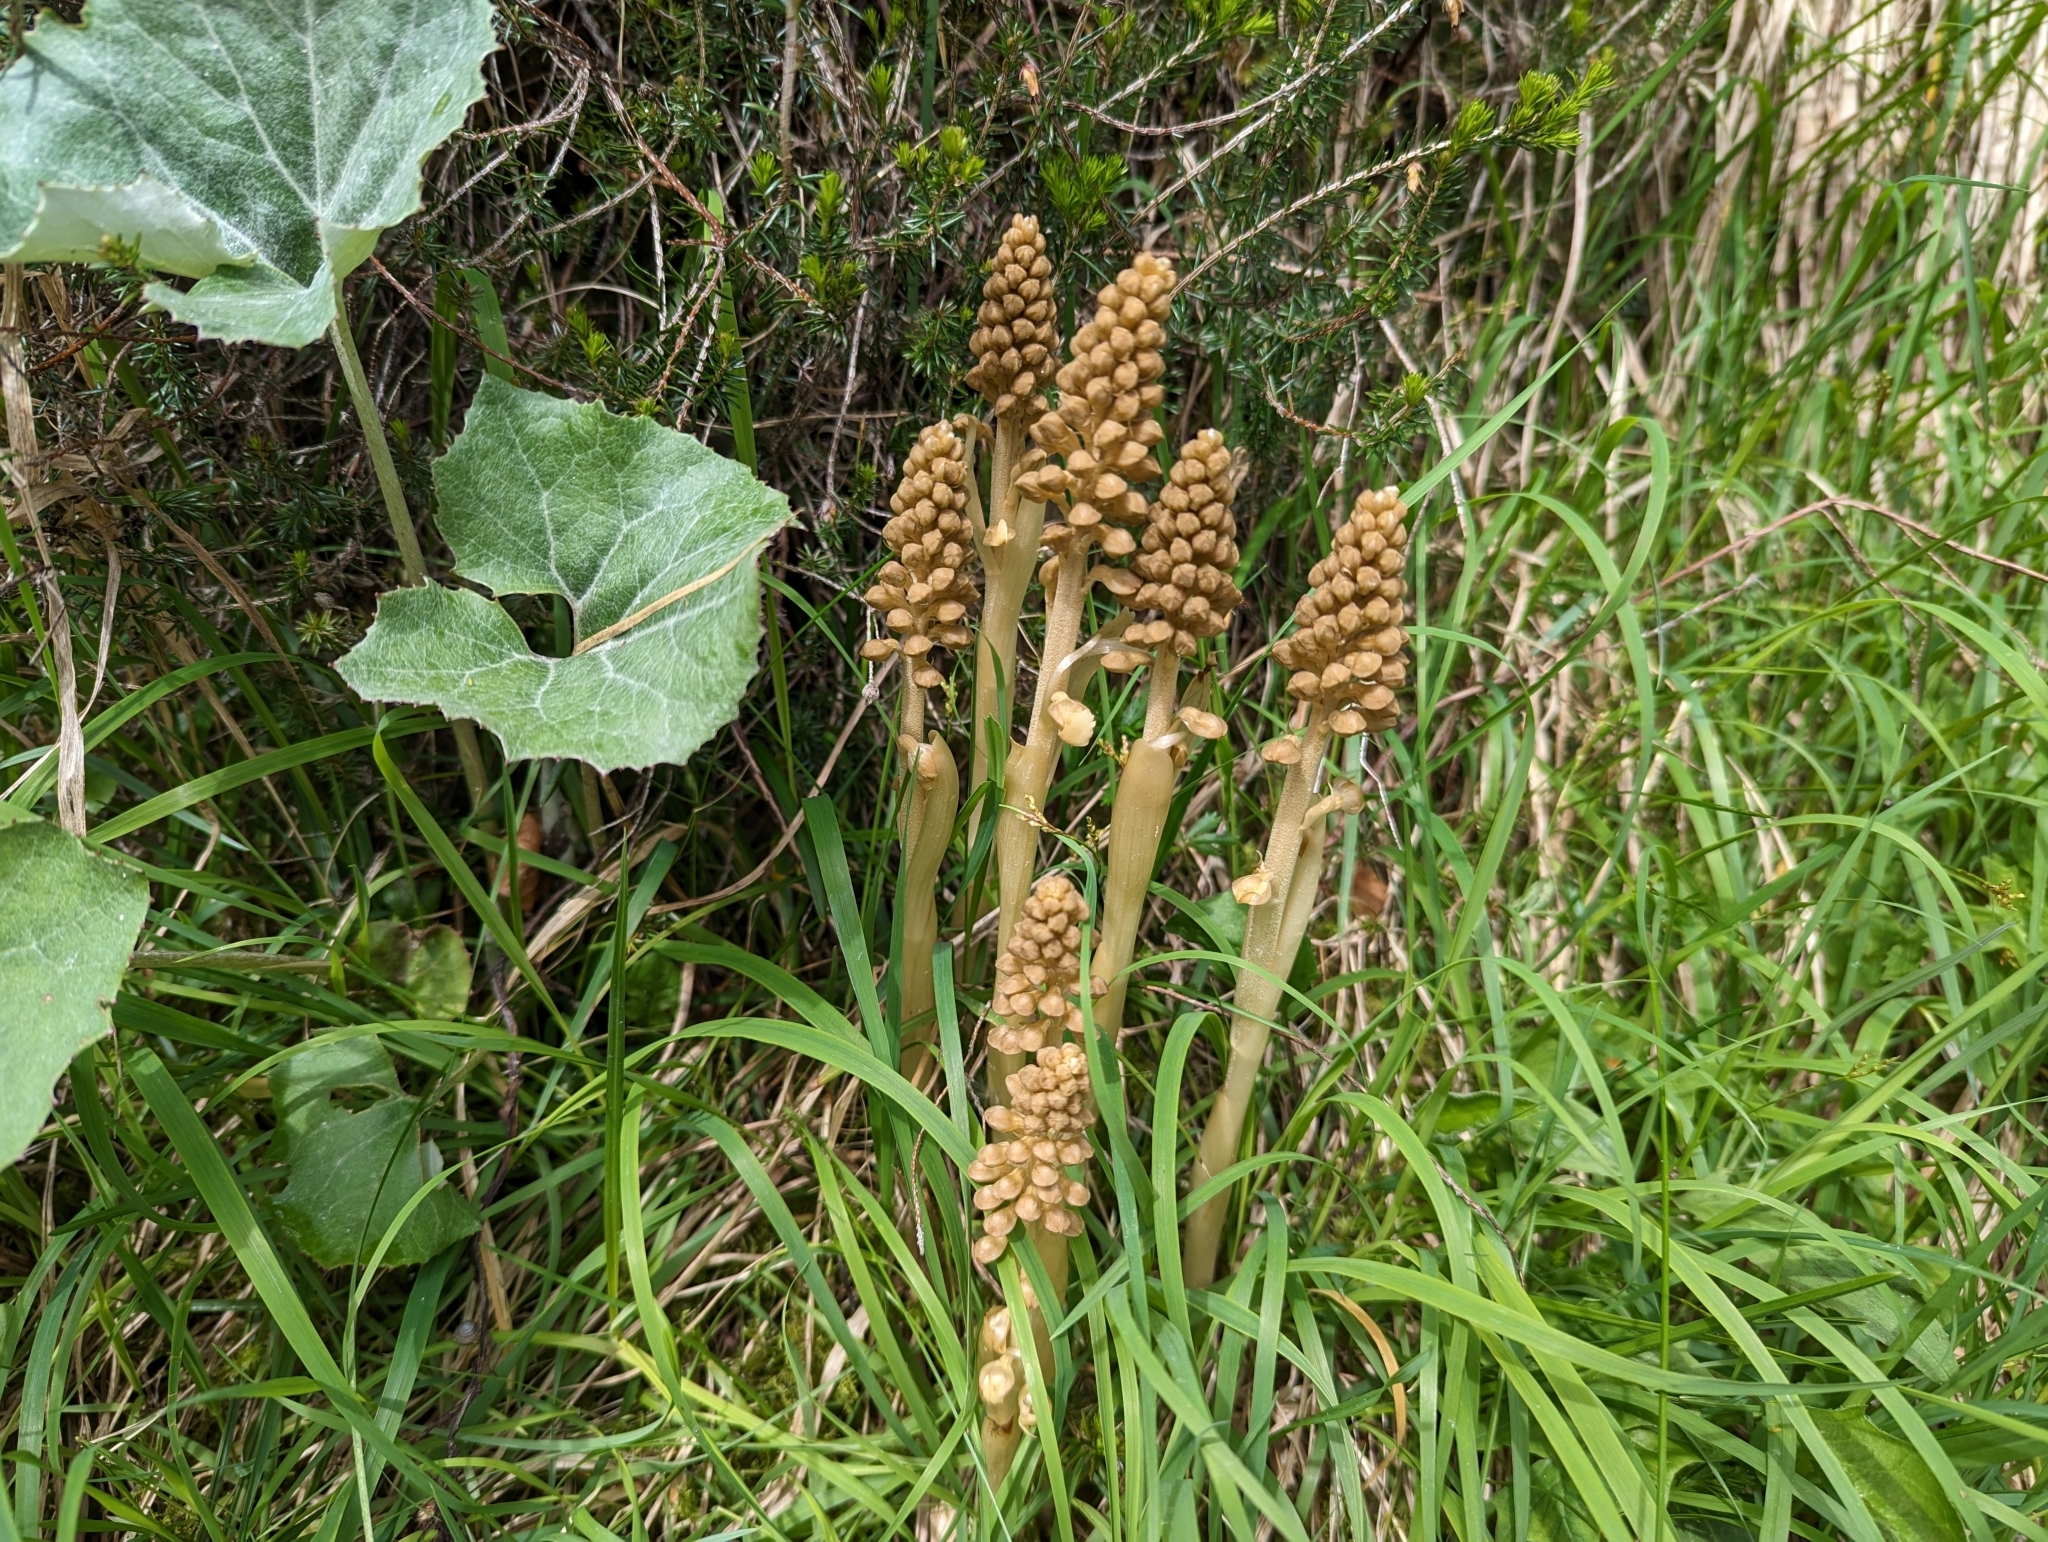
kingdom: Plantae
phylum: Tracheophyta
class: Liliopsida
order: Asparagales
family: Orchidaceae
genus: Neottia
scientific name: Neottia nidus-avis
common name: Bird's-nest orchid
